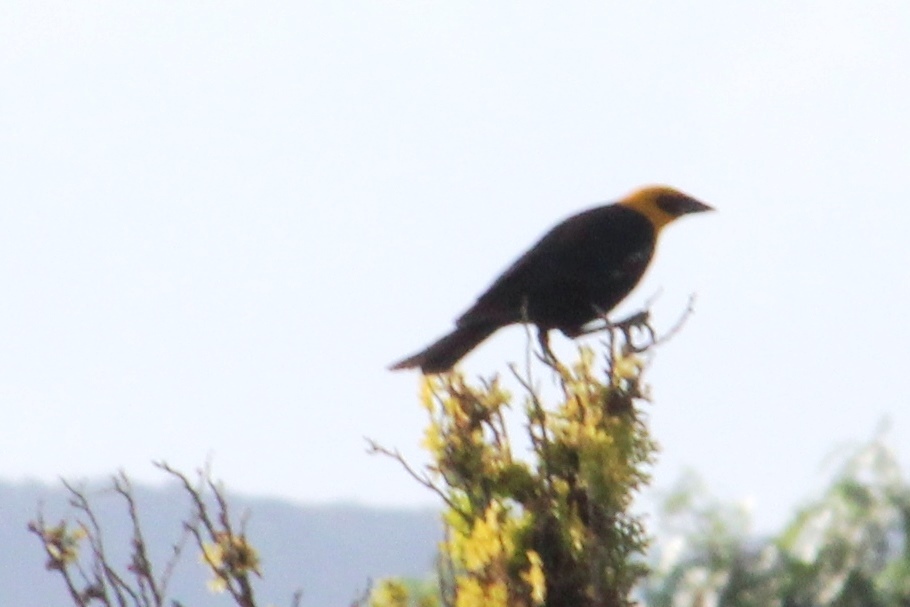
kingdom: Animalia
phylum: Chordata
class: Aves
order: Passeriformes
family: Icteridae
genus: Xanthocephalus
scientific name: Xanthocephalus xanthocephalus
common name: Yellow-headed blackbird
